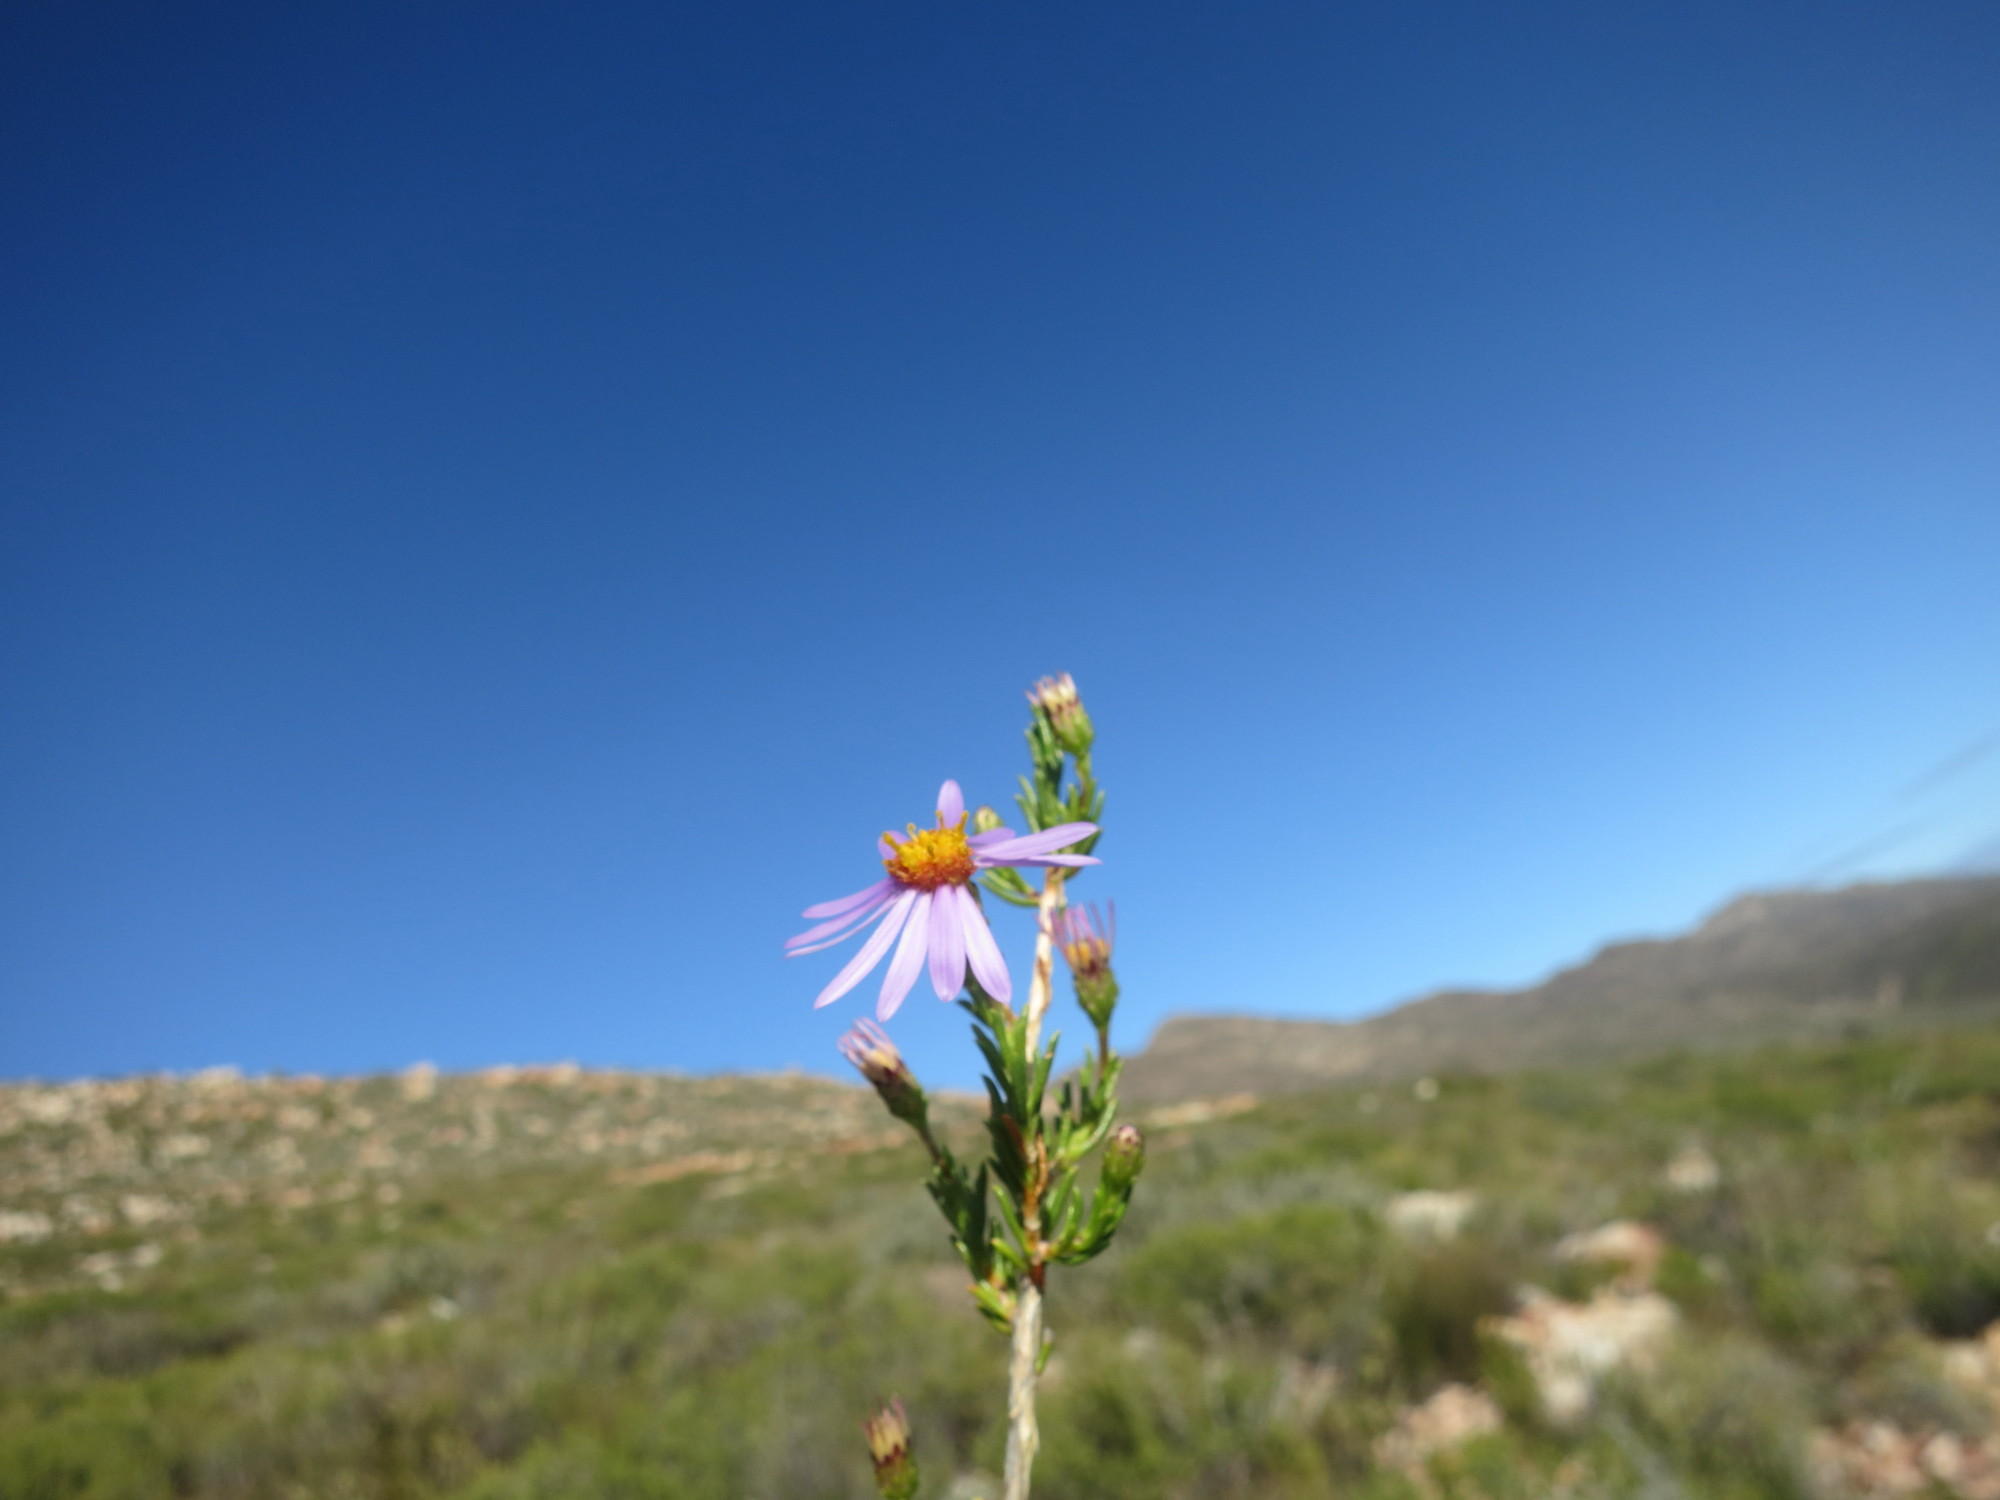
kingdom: Plantae
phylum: Tracheophyta
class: Magnoliopsida
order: Asterales
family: Asteraceae
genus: Felicia
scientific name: Felicia filifolia
